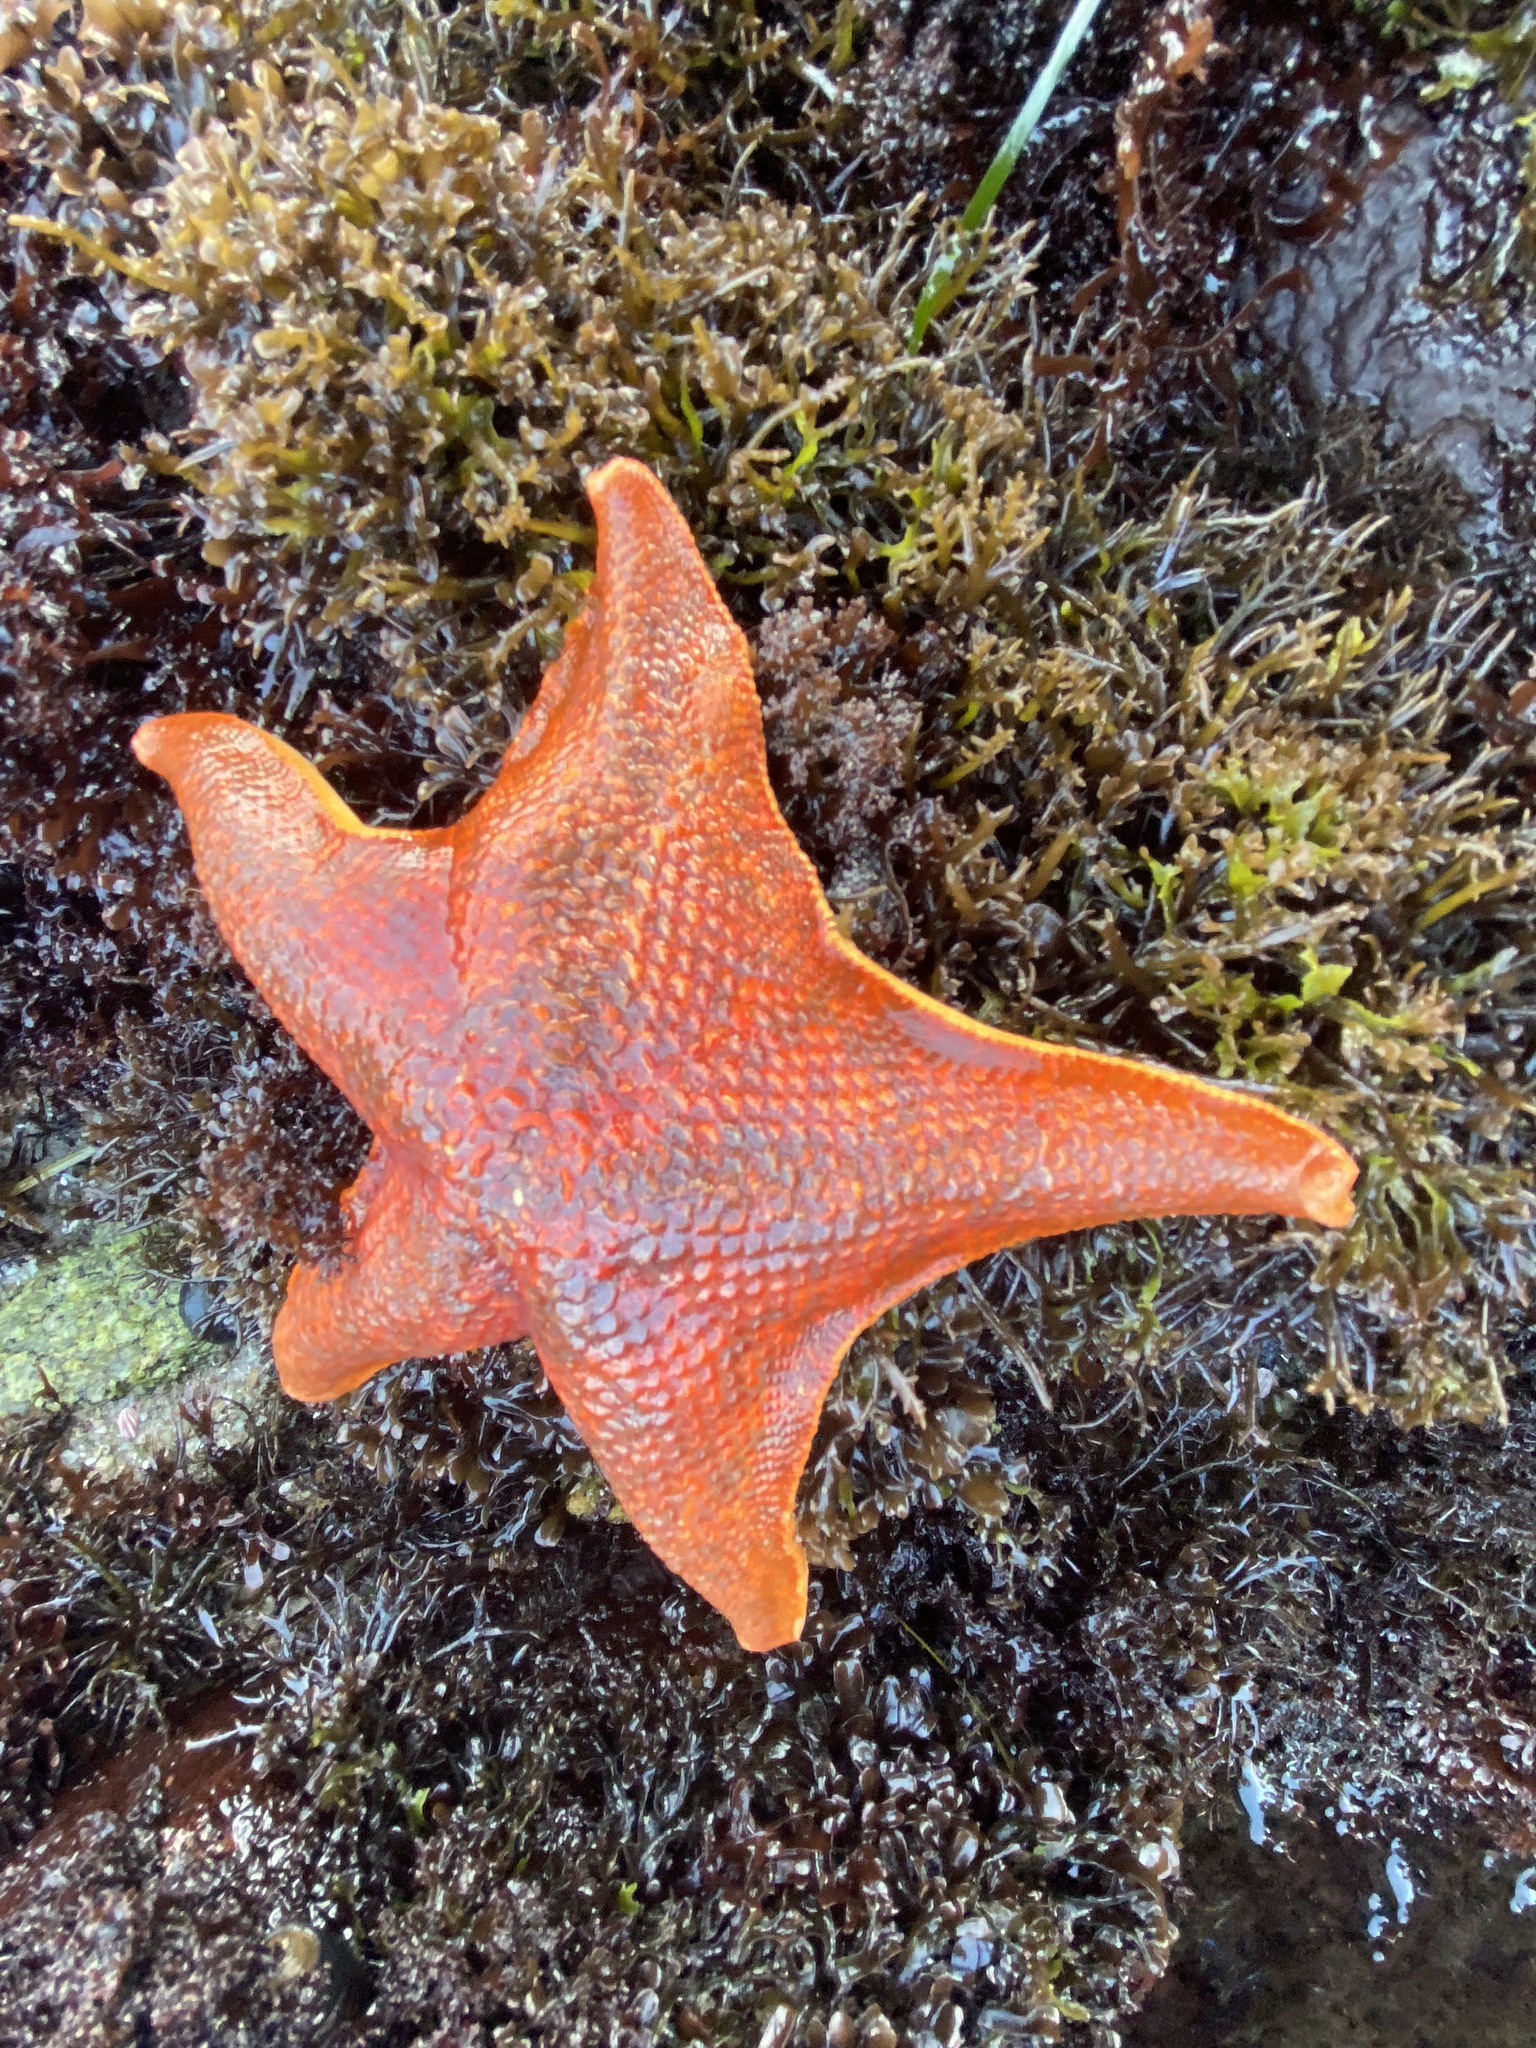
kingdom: Animalia
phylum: Echinodermata
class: Asteroidea
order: Valvatida
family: Asterinidae
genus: Patiria
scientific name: Patiria miniata
